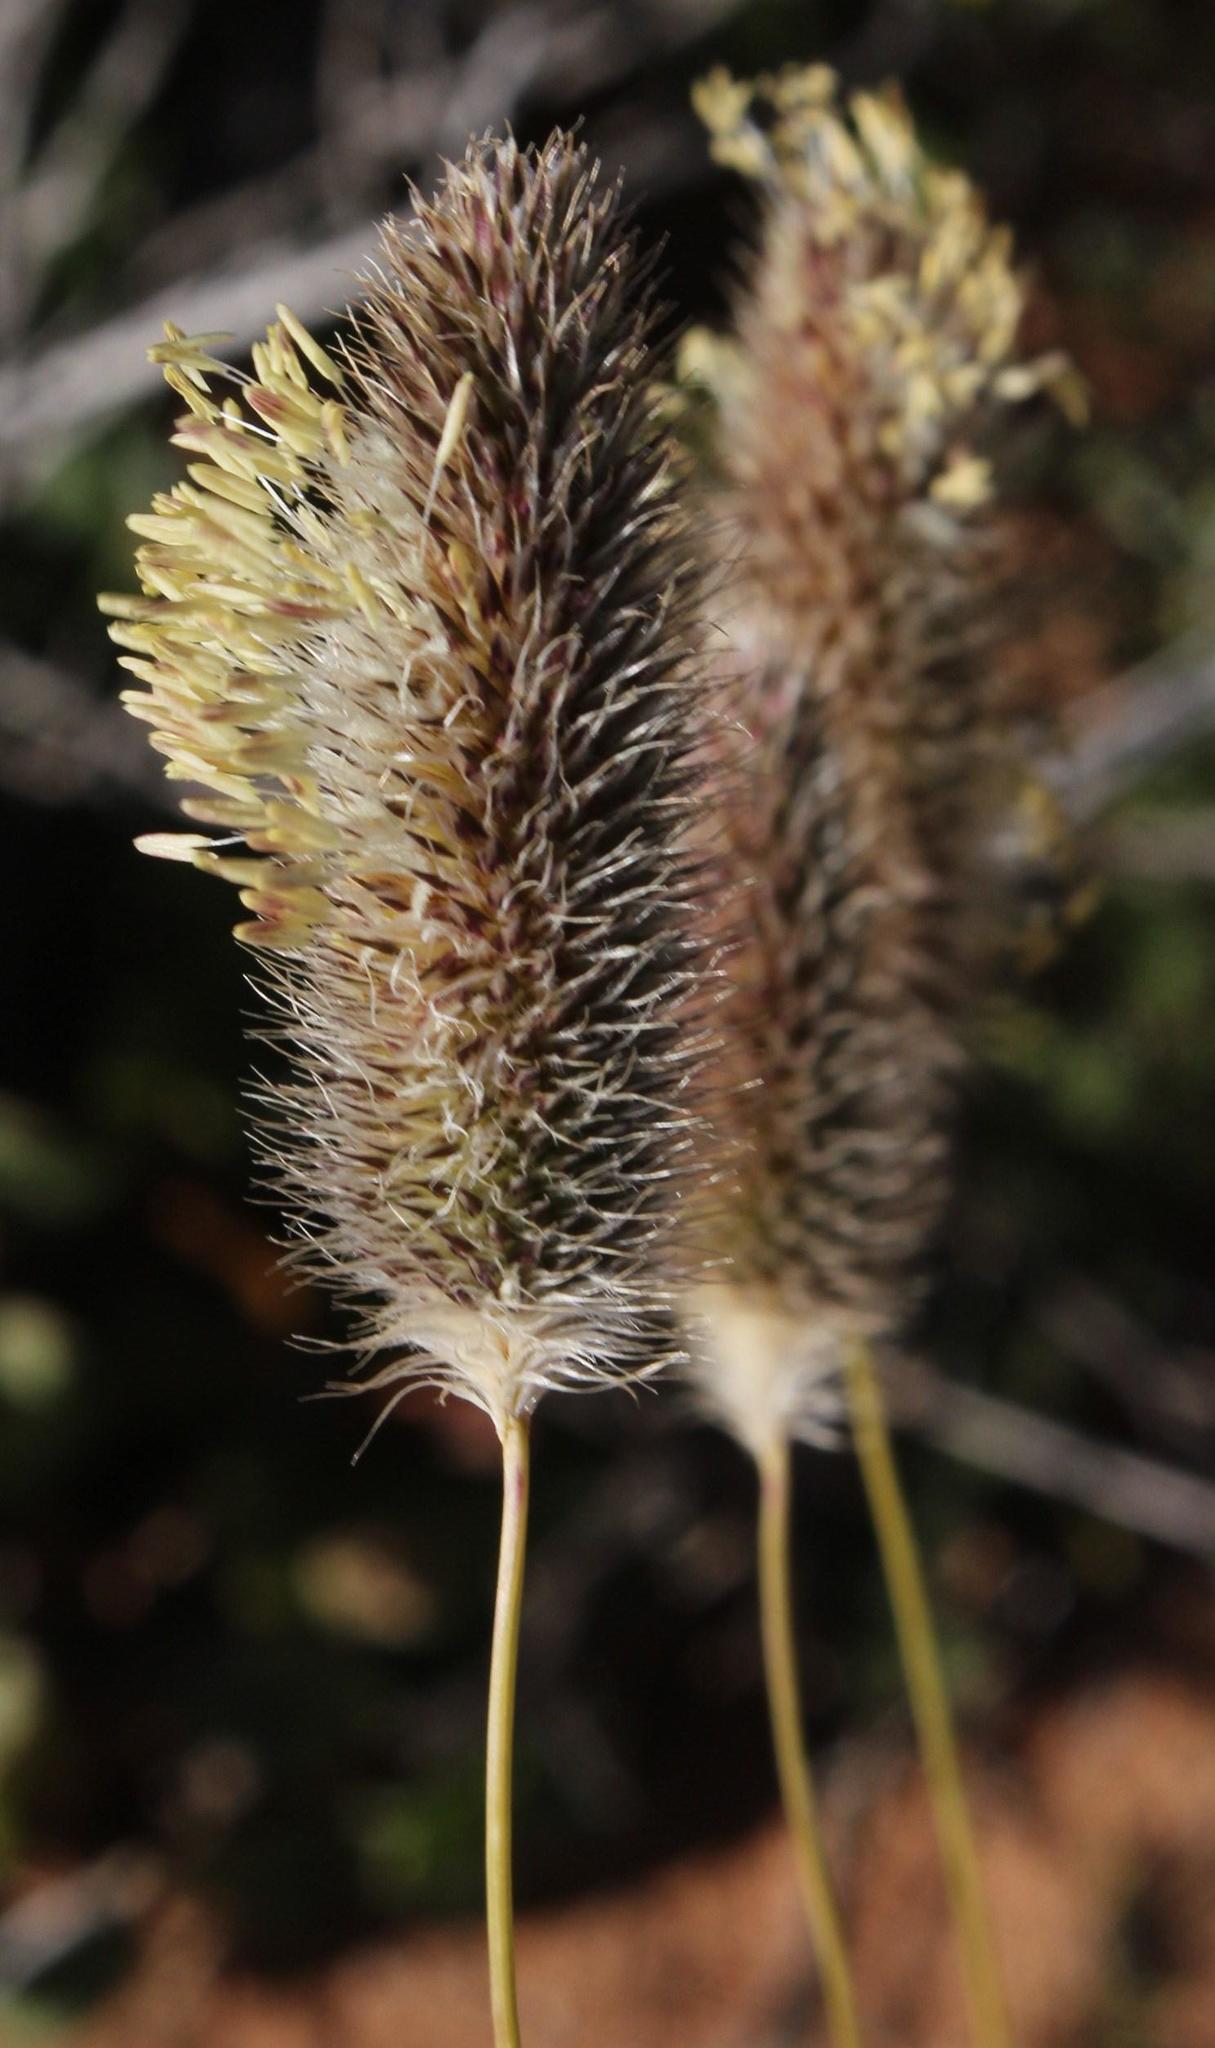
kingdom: Plantae
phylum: Tracheophyta
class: Liliopsida
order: Poales
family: Poaceae
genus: Fingerhuthia
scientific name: Fingerhuthia africana
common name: Zulu fescue
